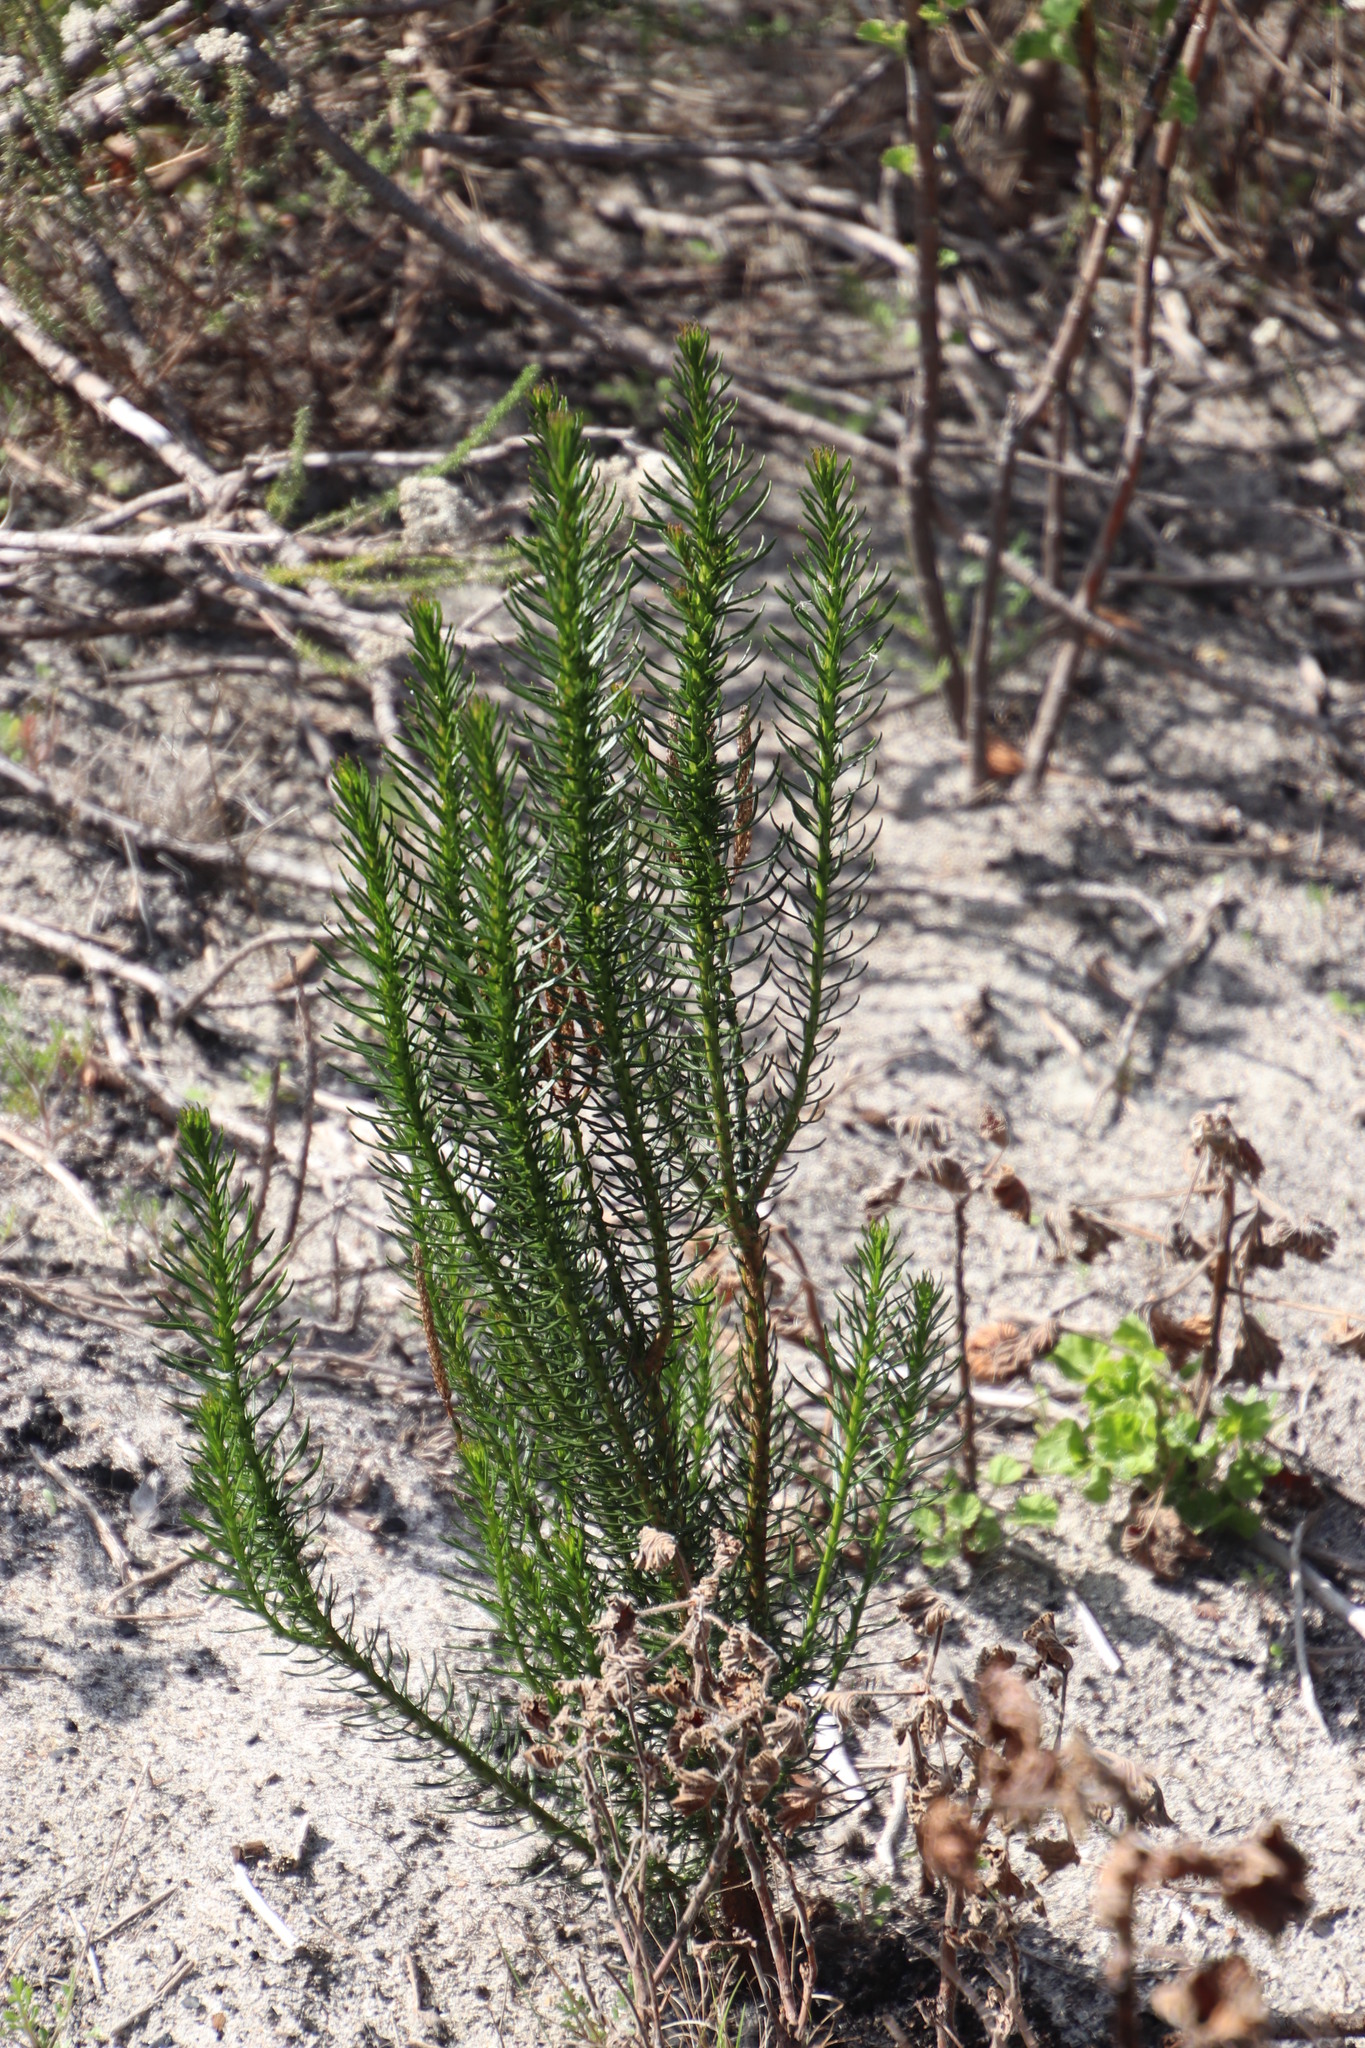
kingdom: Plantae
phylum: Tracheophyta
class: Magnoliopsida
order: Lamiales
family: Scrophulariaceae
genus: Pseudoselago
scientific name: Pseudoselago spuria
